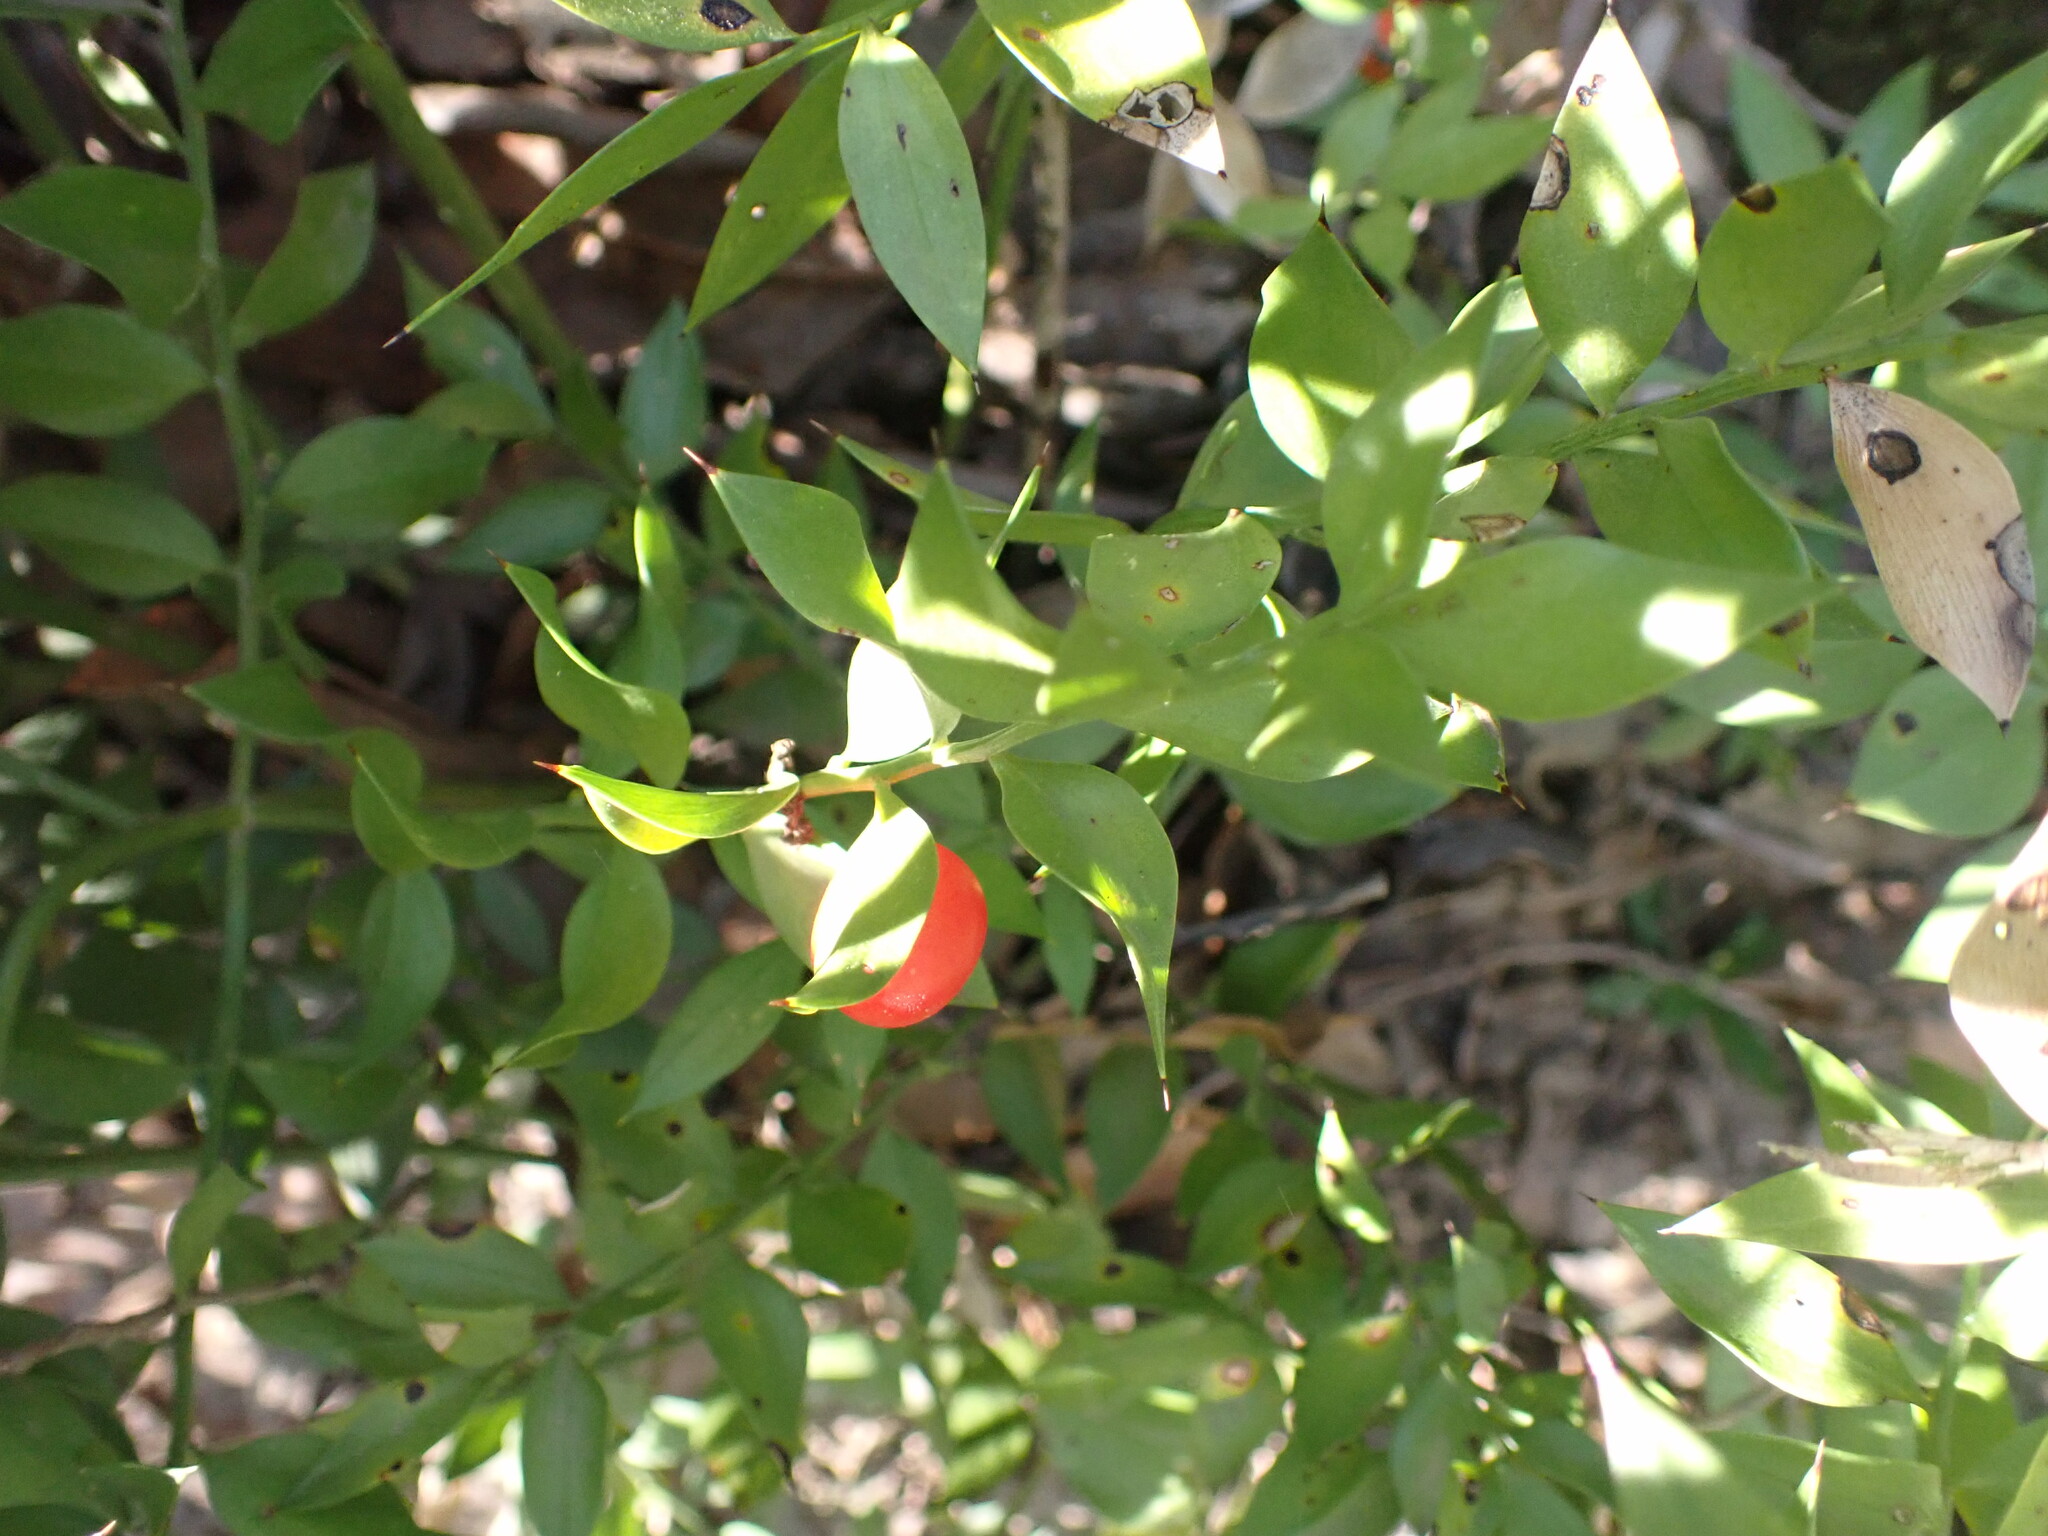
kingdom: Plantae
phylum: Tracheophyta
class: Liliopsida
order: Asparagales
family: Asparagaceae
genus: Ruscus
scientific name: Ruscus aculeatus
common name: Butcher's-broom
